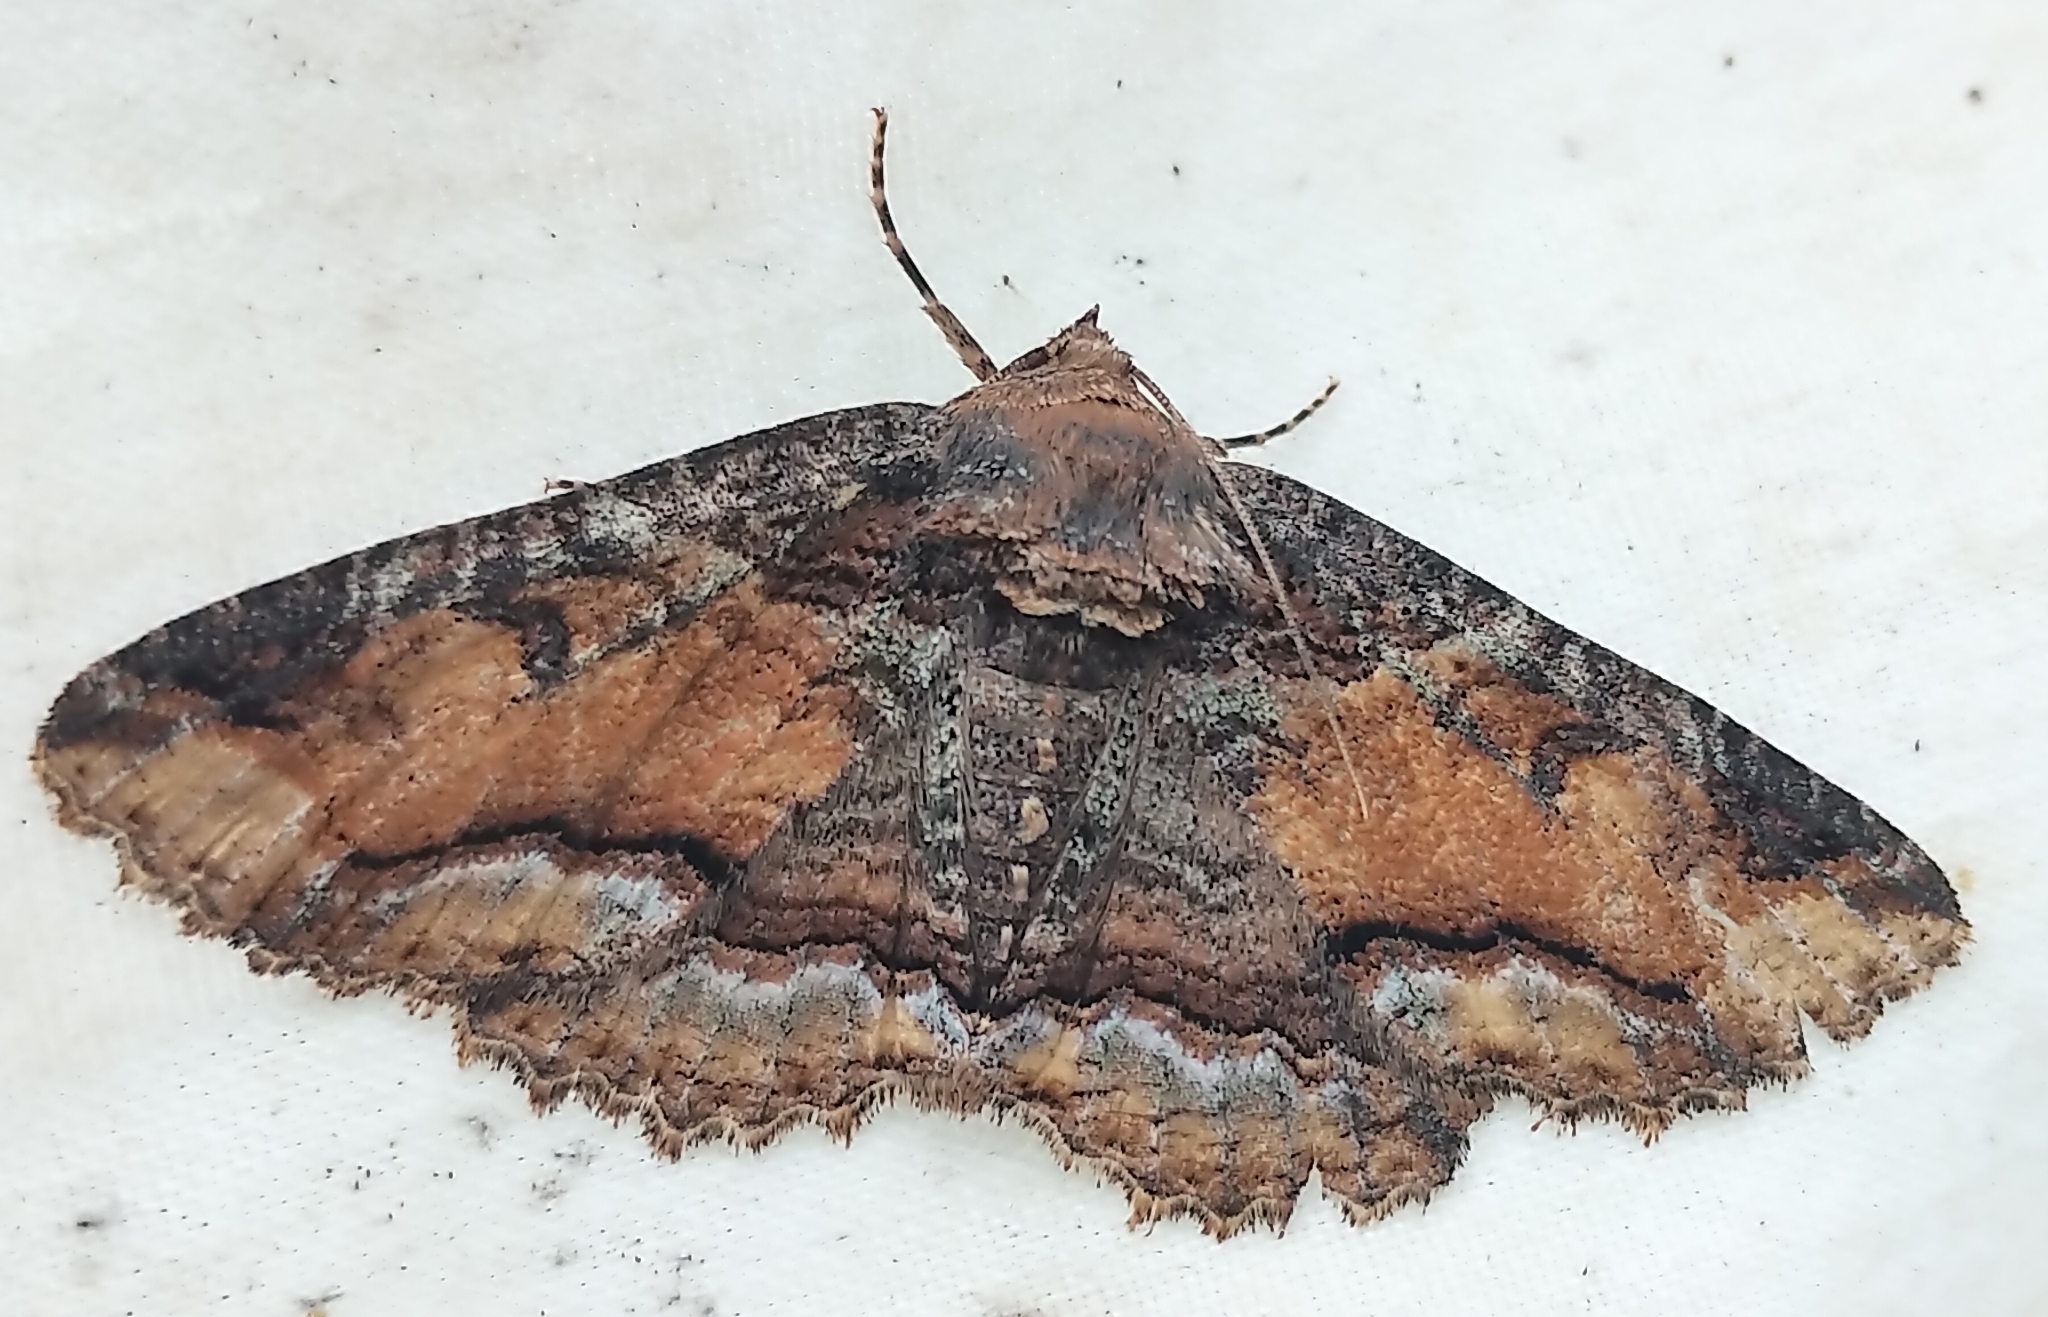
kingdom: Animalia
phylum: Arthropoda
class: Insecta
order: Lepidoptera
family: Erebidae
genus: Zale
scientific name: Zale minerea
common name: Colorful zale moth
